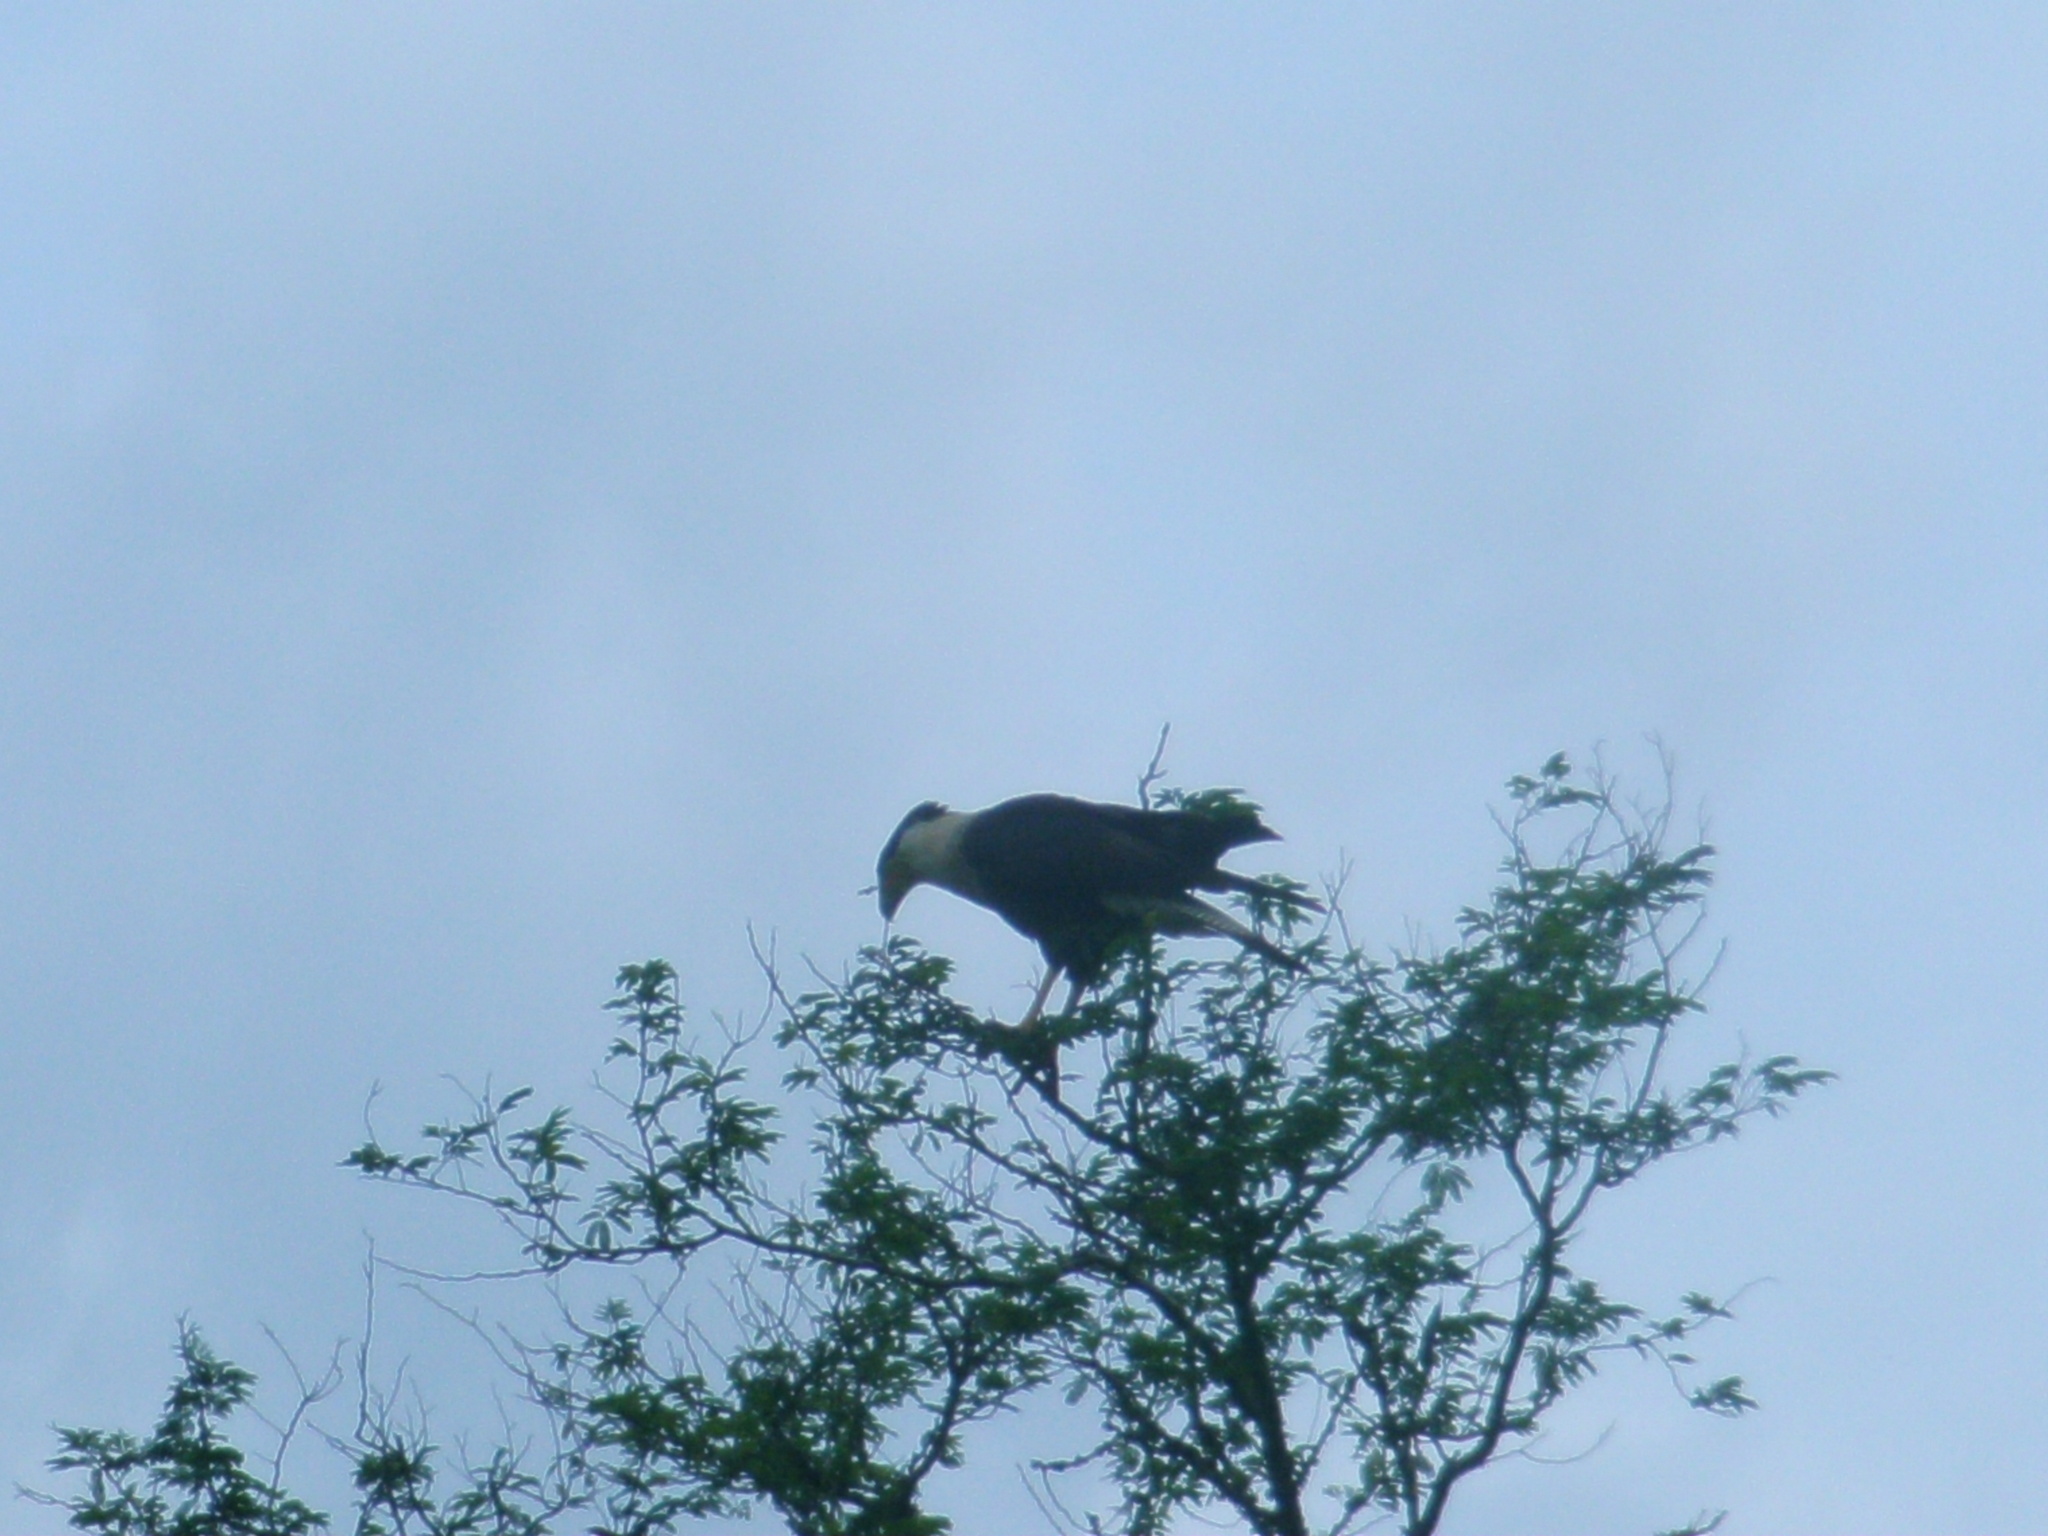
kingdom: Animalia
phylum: Chordata
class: Aves
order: Falconiformes
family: Falconidae
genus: Caracara
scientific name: Caracara plancus
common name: Southern caracara
